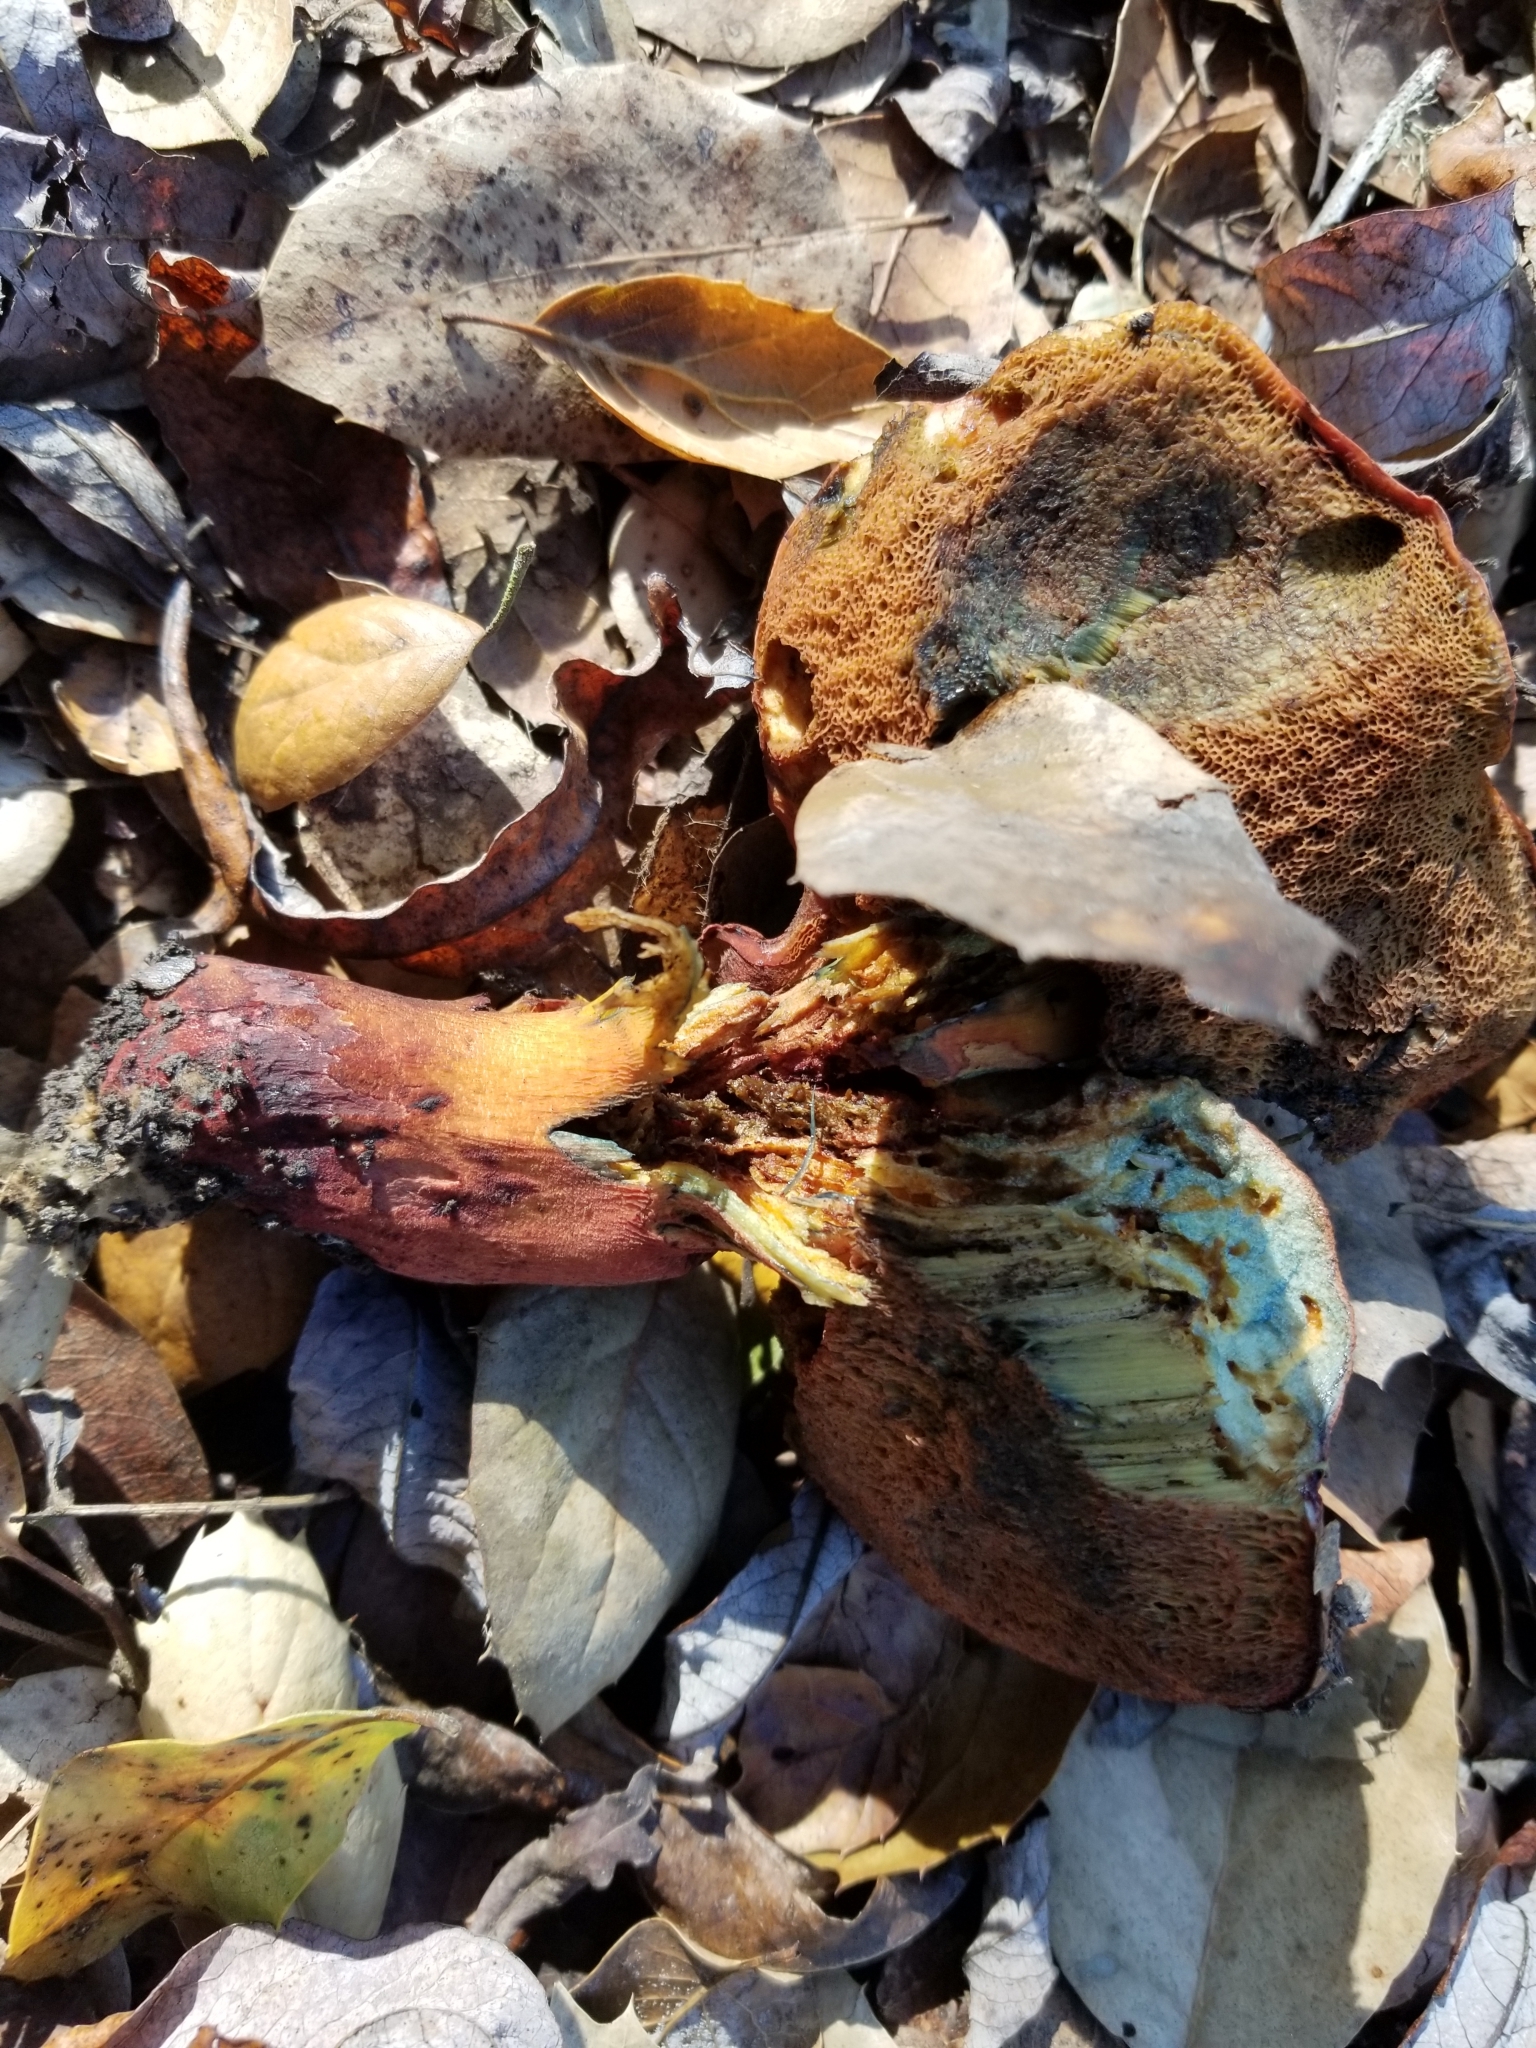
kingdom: Fungi
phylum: Basidiomycota
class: Agaricomycetes
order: Boletales
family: Boletaceae
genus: Suillellus
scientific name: Suillellus amygdalinus
